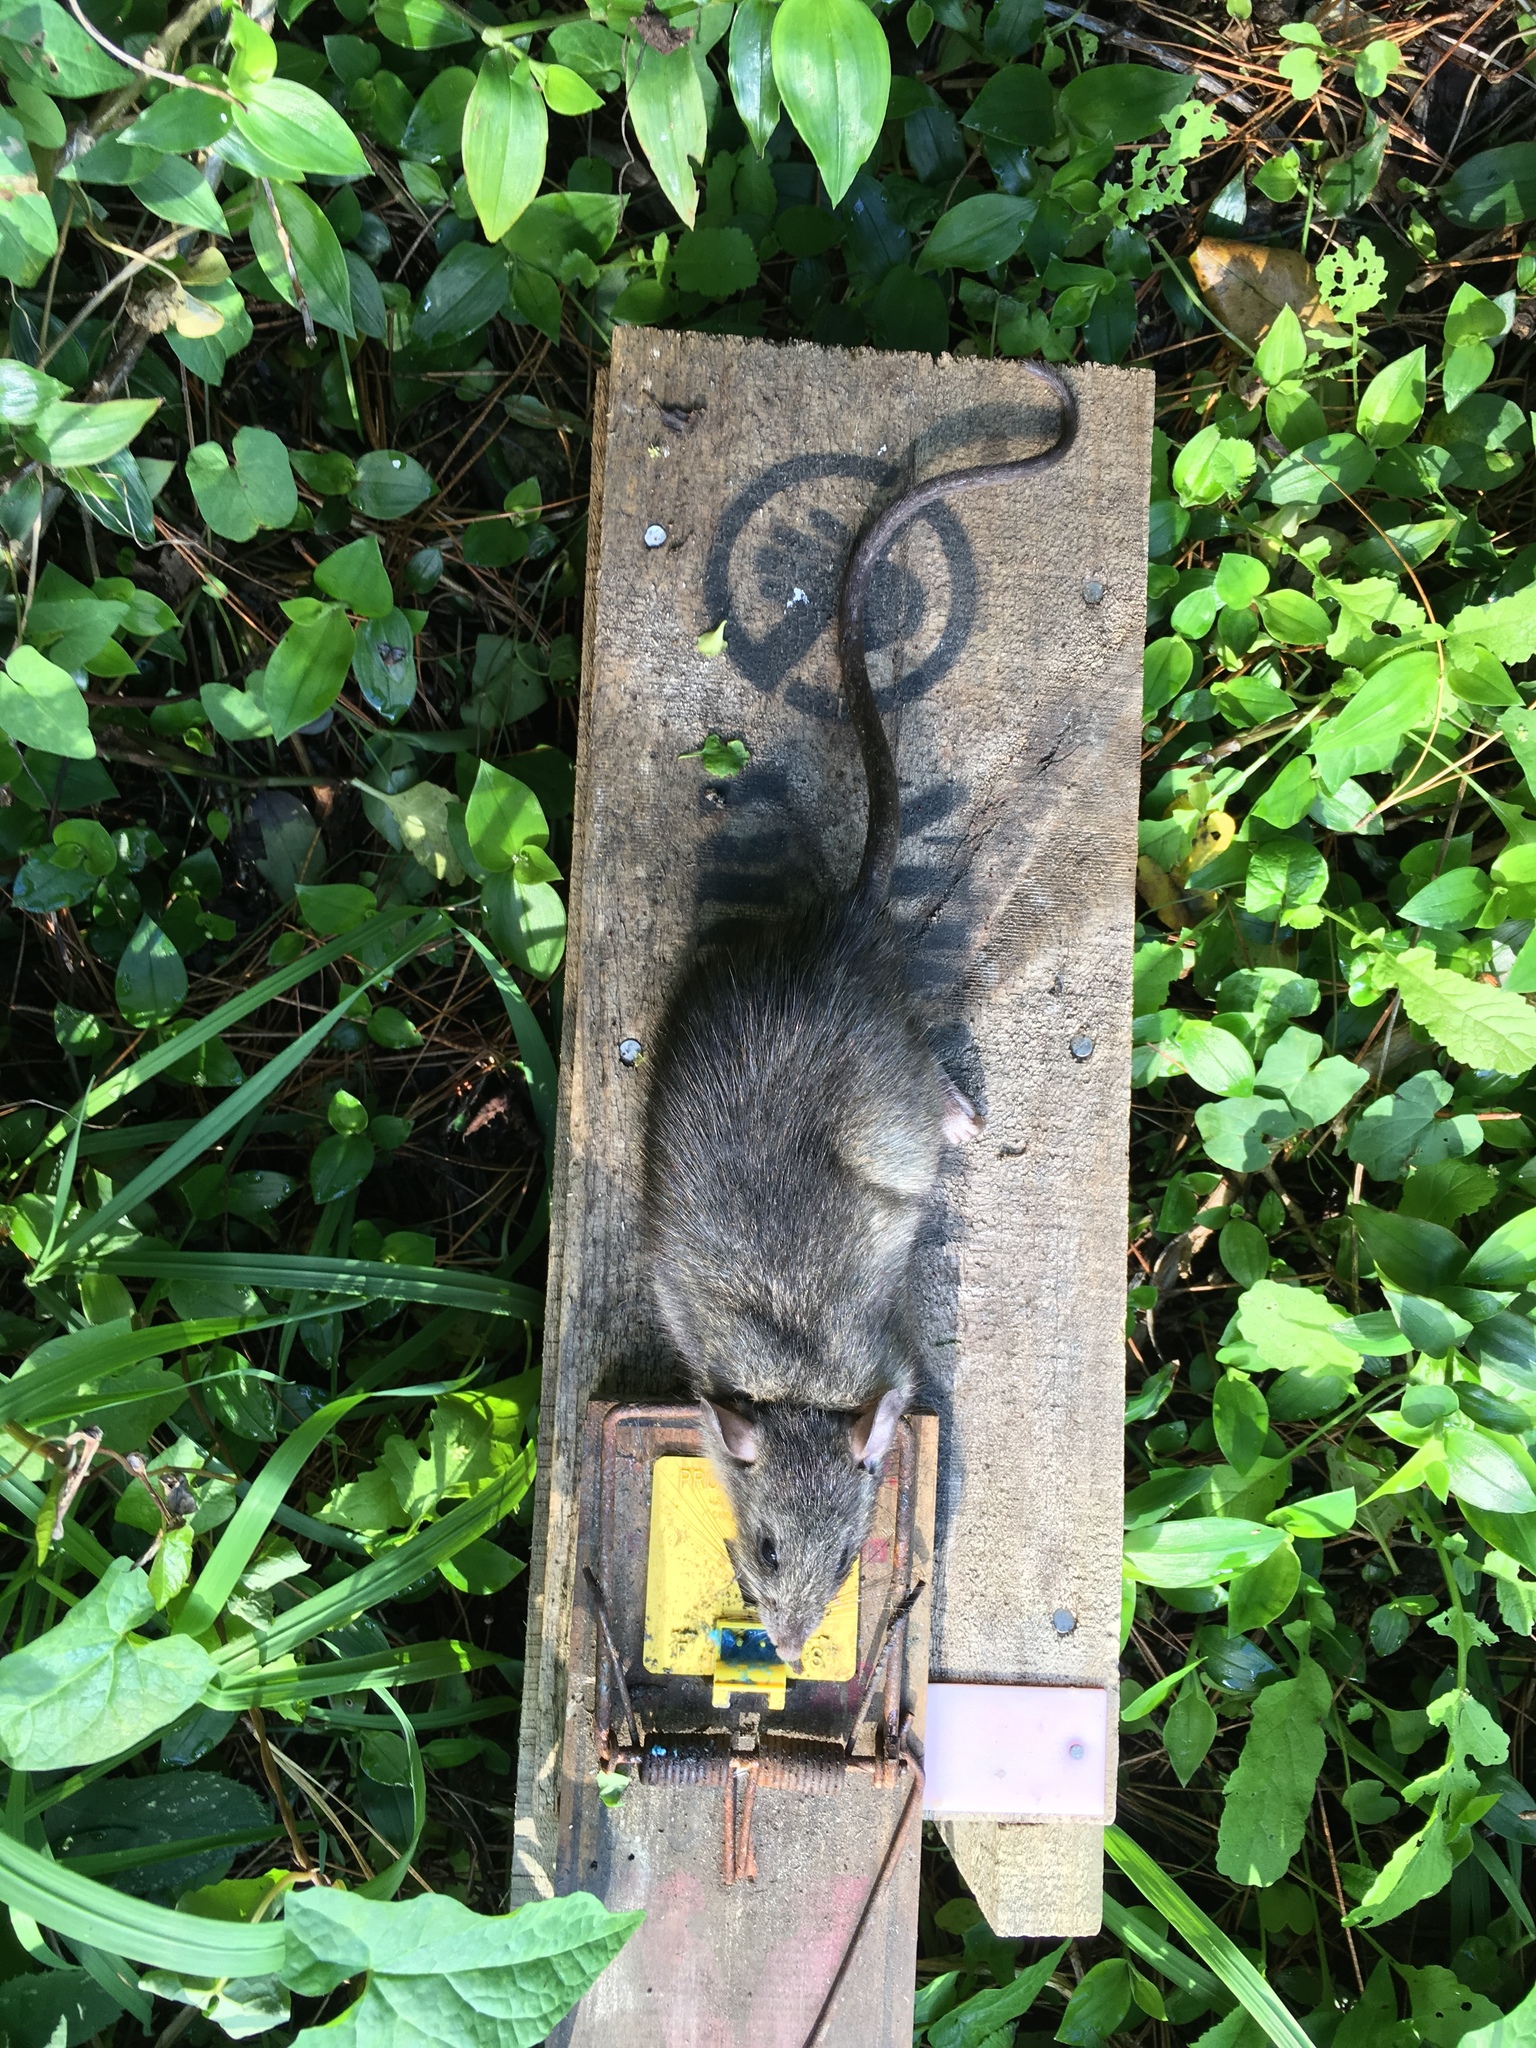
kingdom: Animalia
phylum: Chordata
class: Mammalia
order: Rodentia
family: Muridae
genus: Rattus
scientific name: Rattus rattus
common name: Black rat
